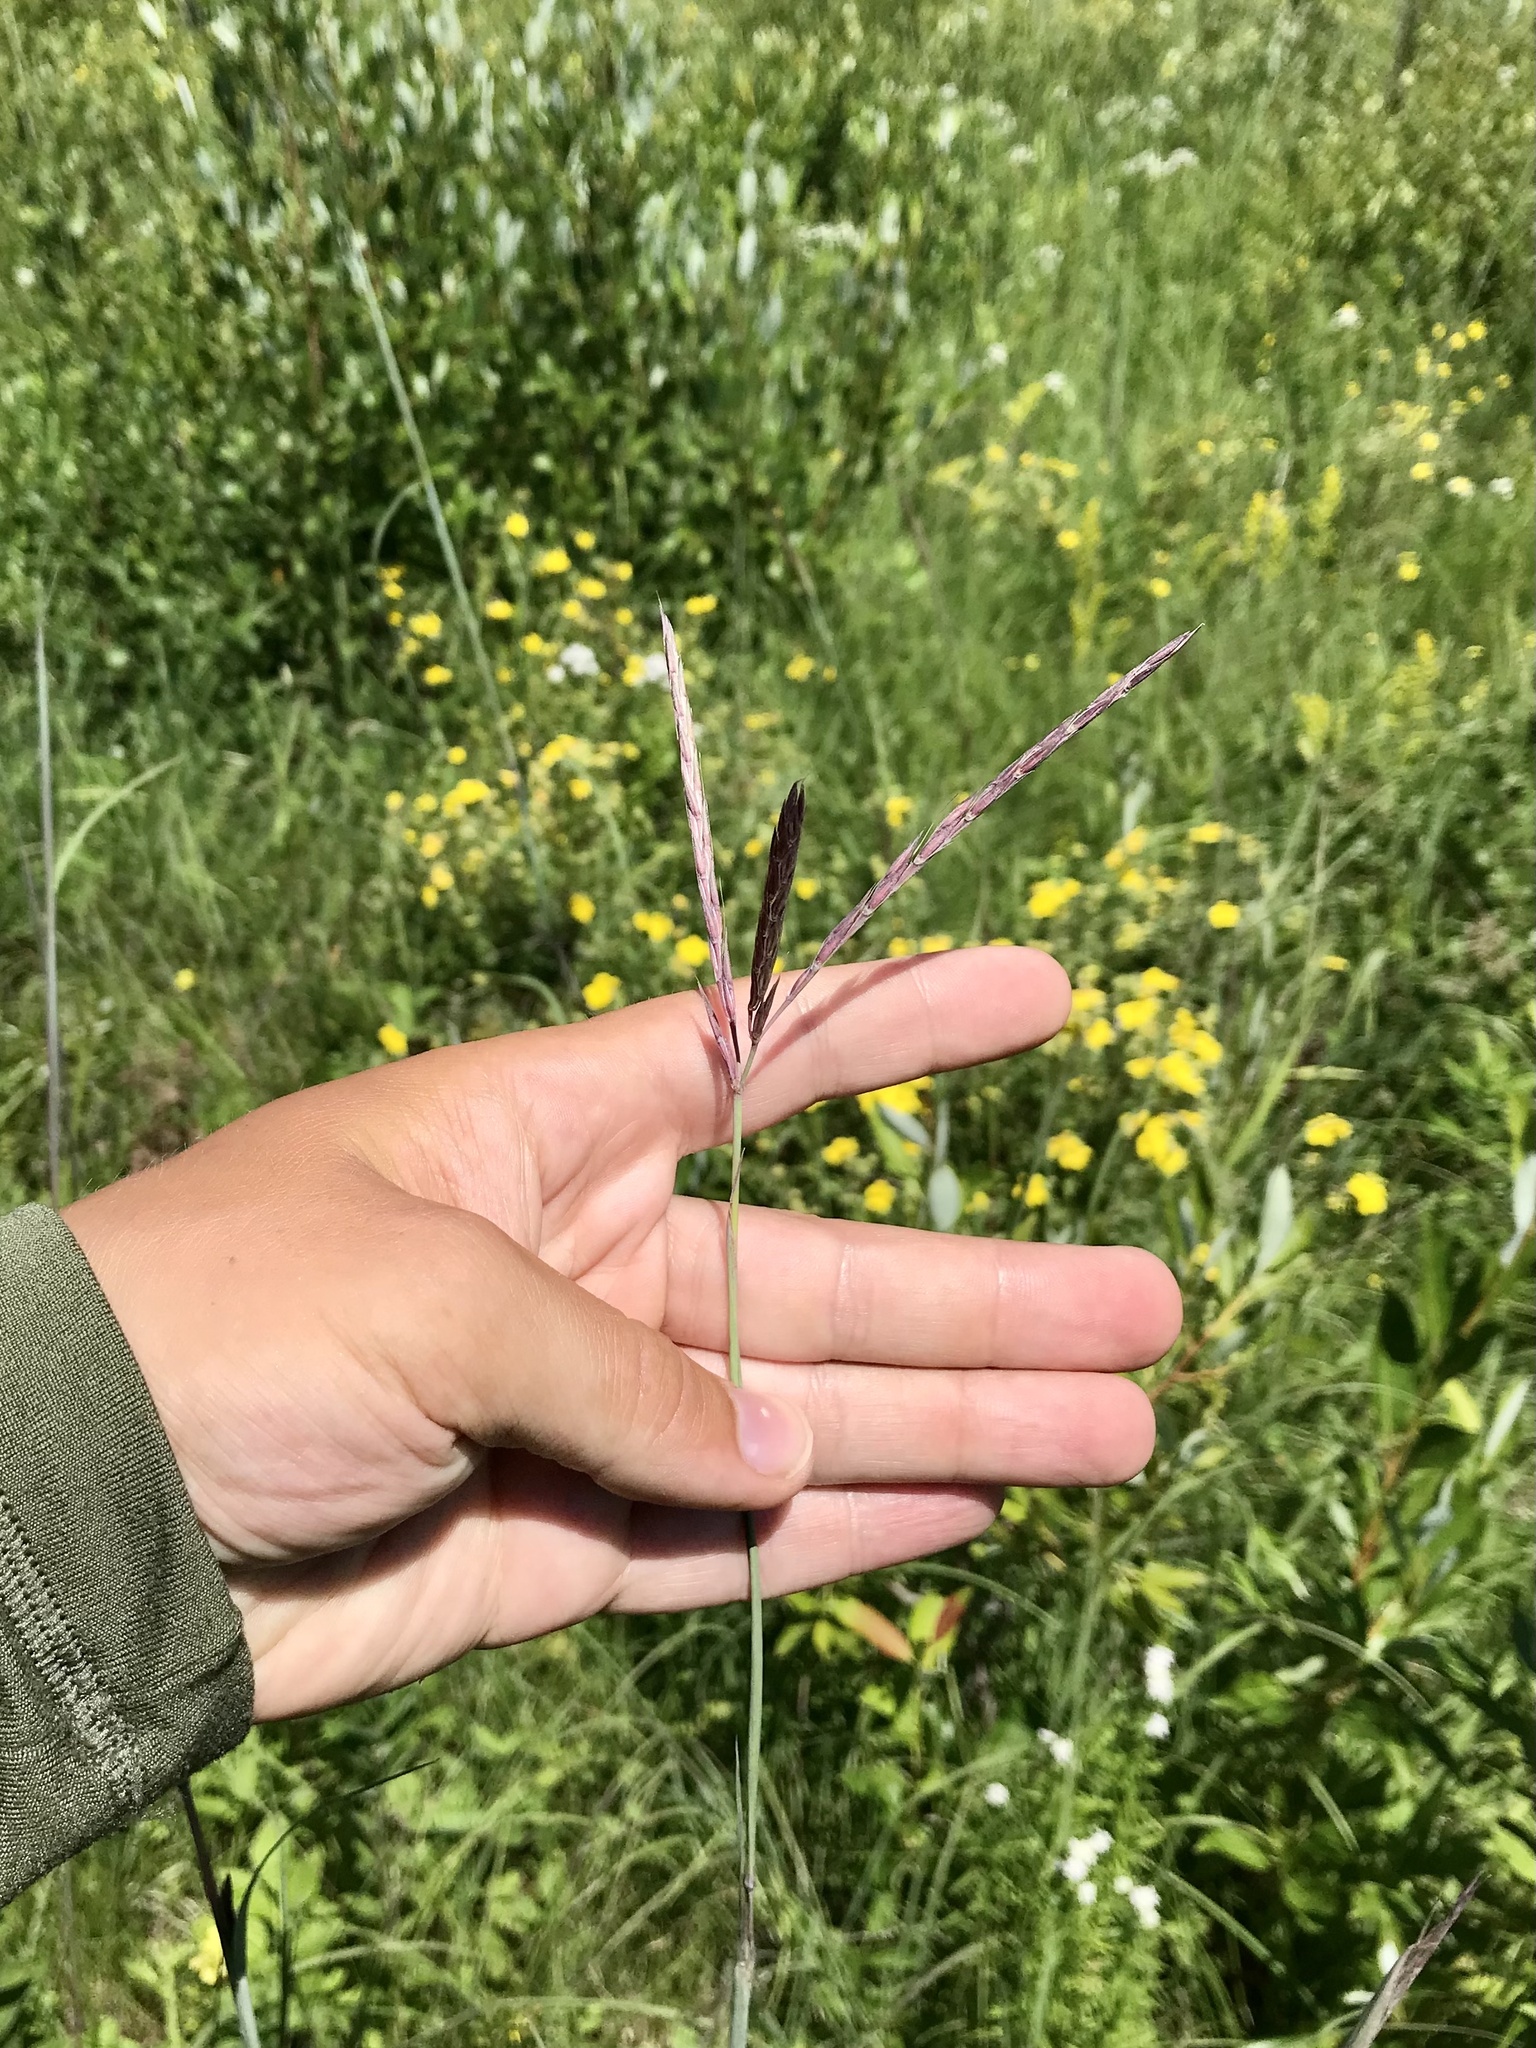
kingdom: Plantae
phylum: Tracheophyta
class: Liliopsida
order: Poales
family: Poaceae
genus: Andropogon
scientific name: Andropogon gerardi
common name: Big bluestem
